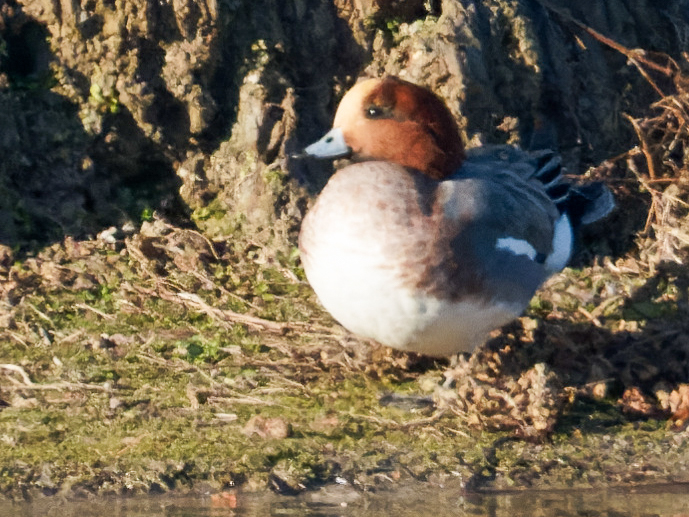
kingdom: Animalia
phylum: Chordata
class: Aves
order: Anseriformes
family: Anatidae
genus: Mareca
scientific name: Mareca penelope
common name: Eurasian wigeon
